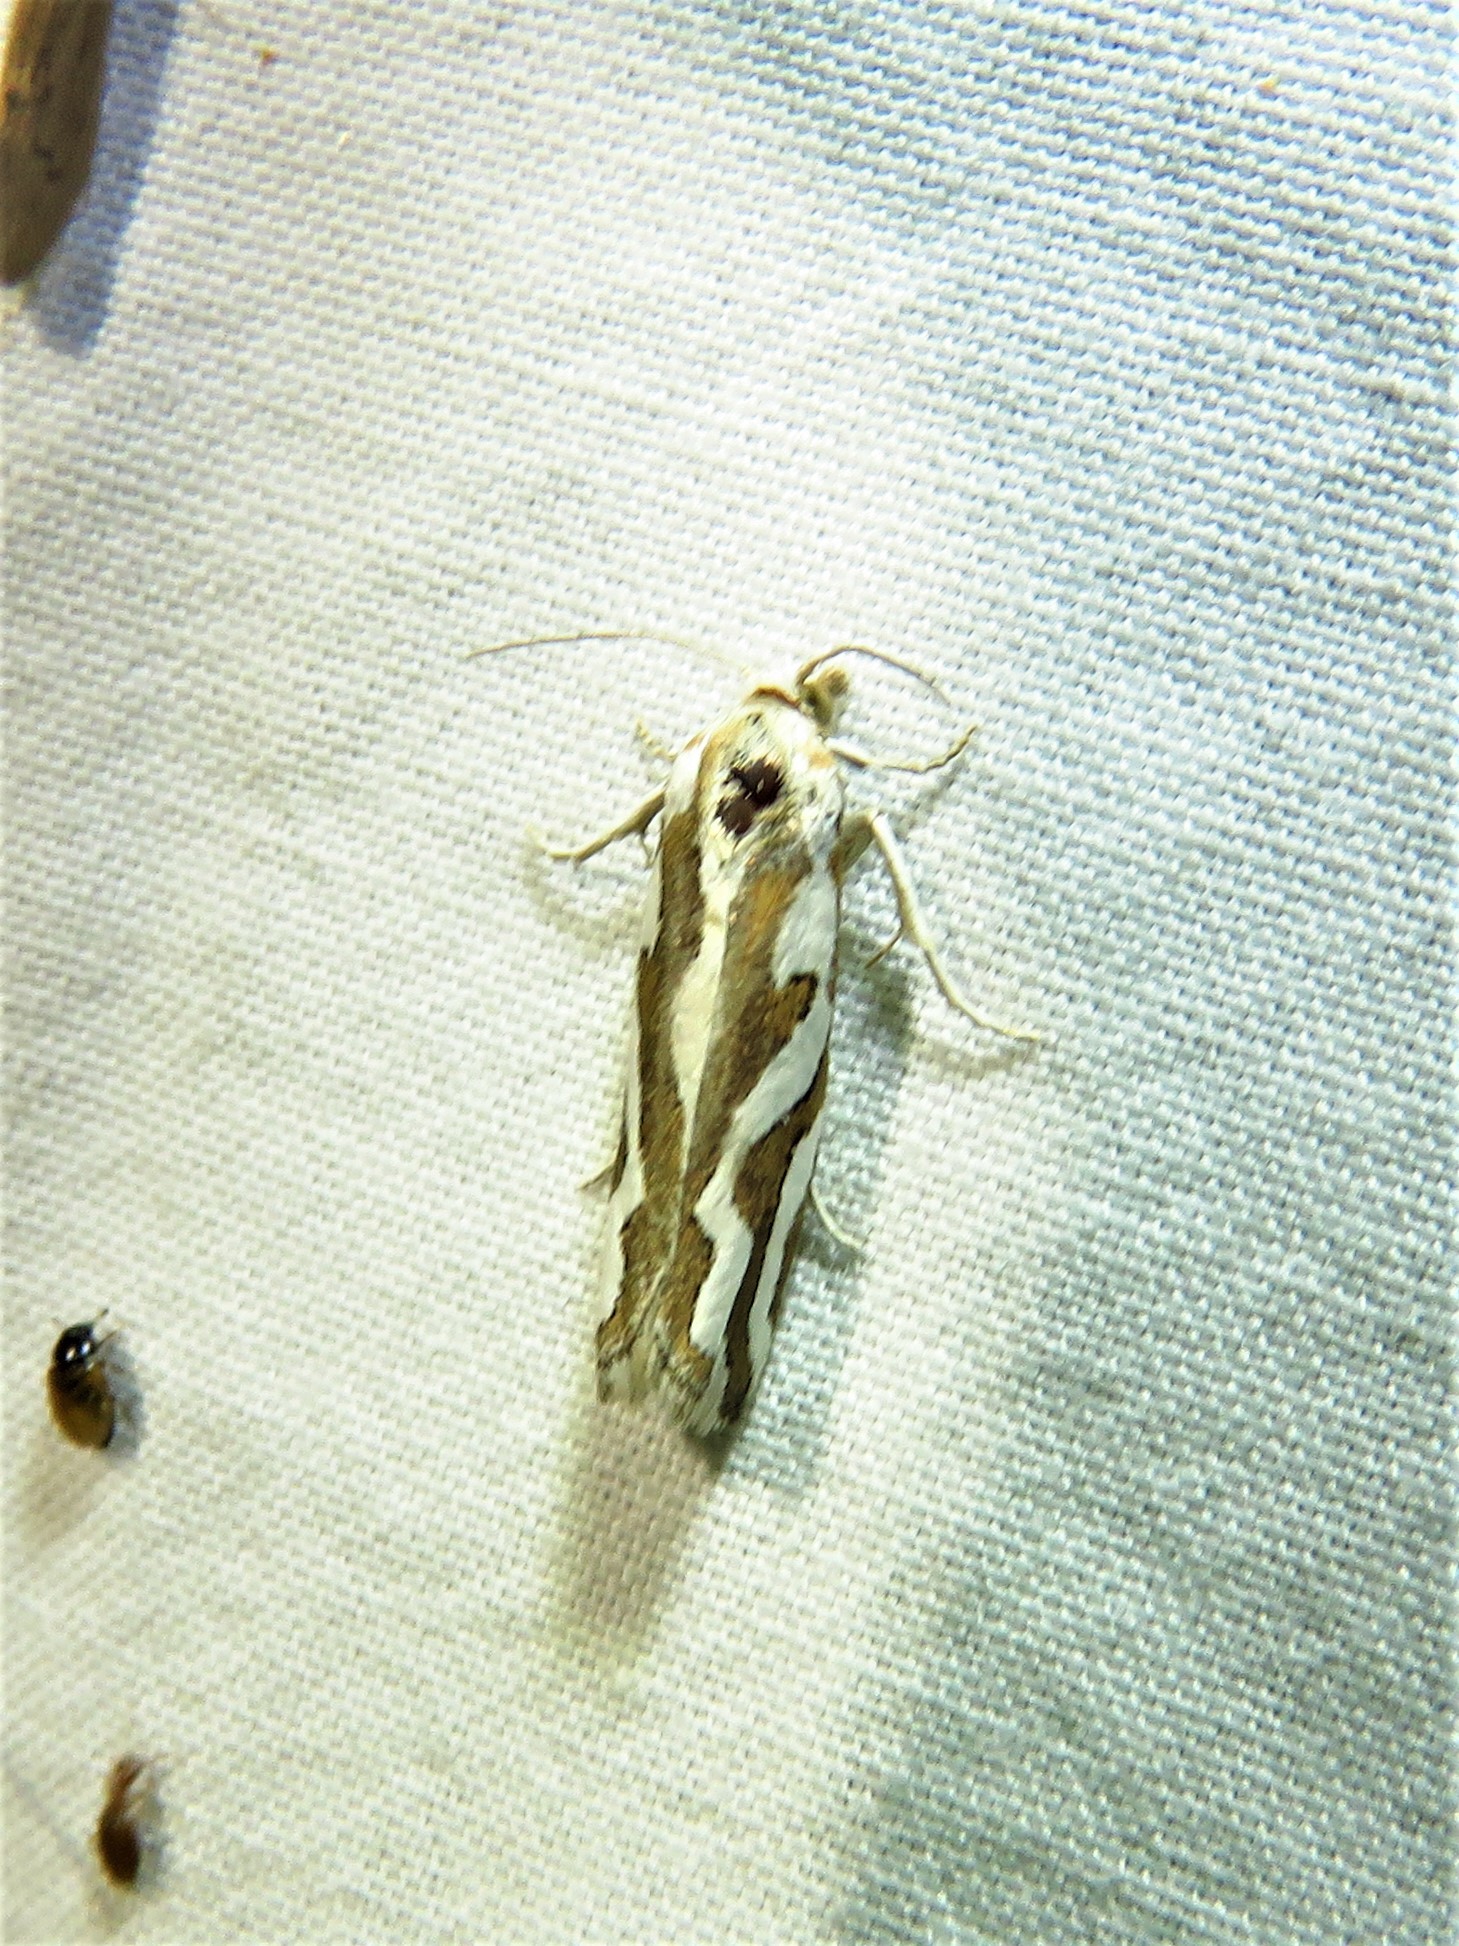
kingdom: Animalia
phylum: Arthropoda
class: Insecta
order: Lepidoptera
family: Tortricidae
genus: Pelochrista
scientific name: Pelochrista agassizii
